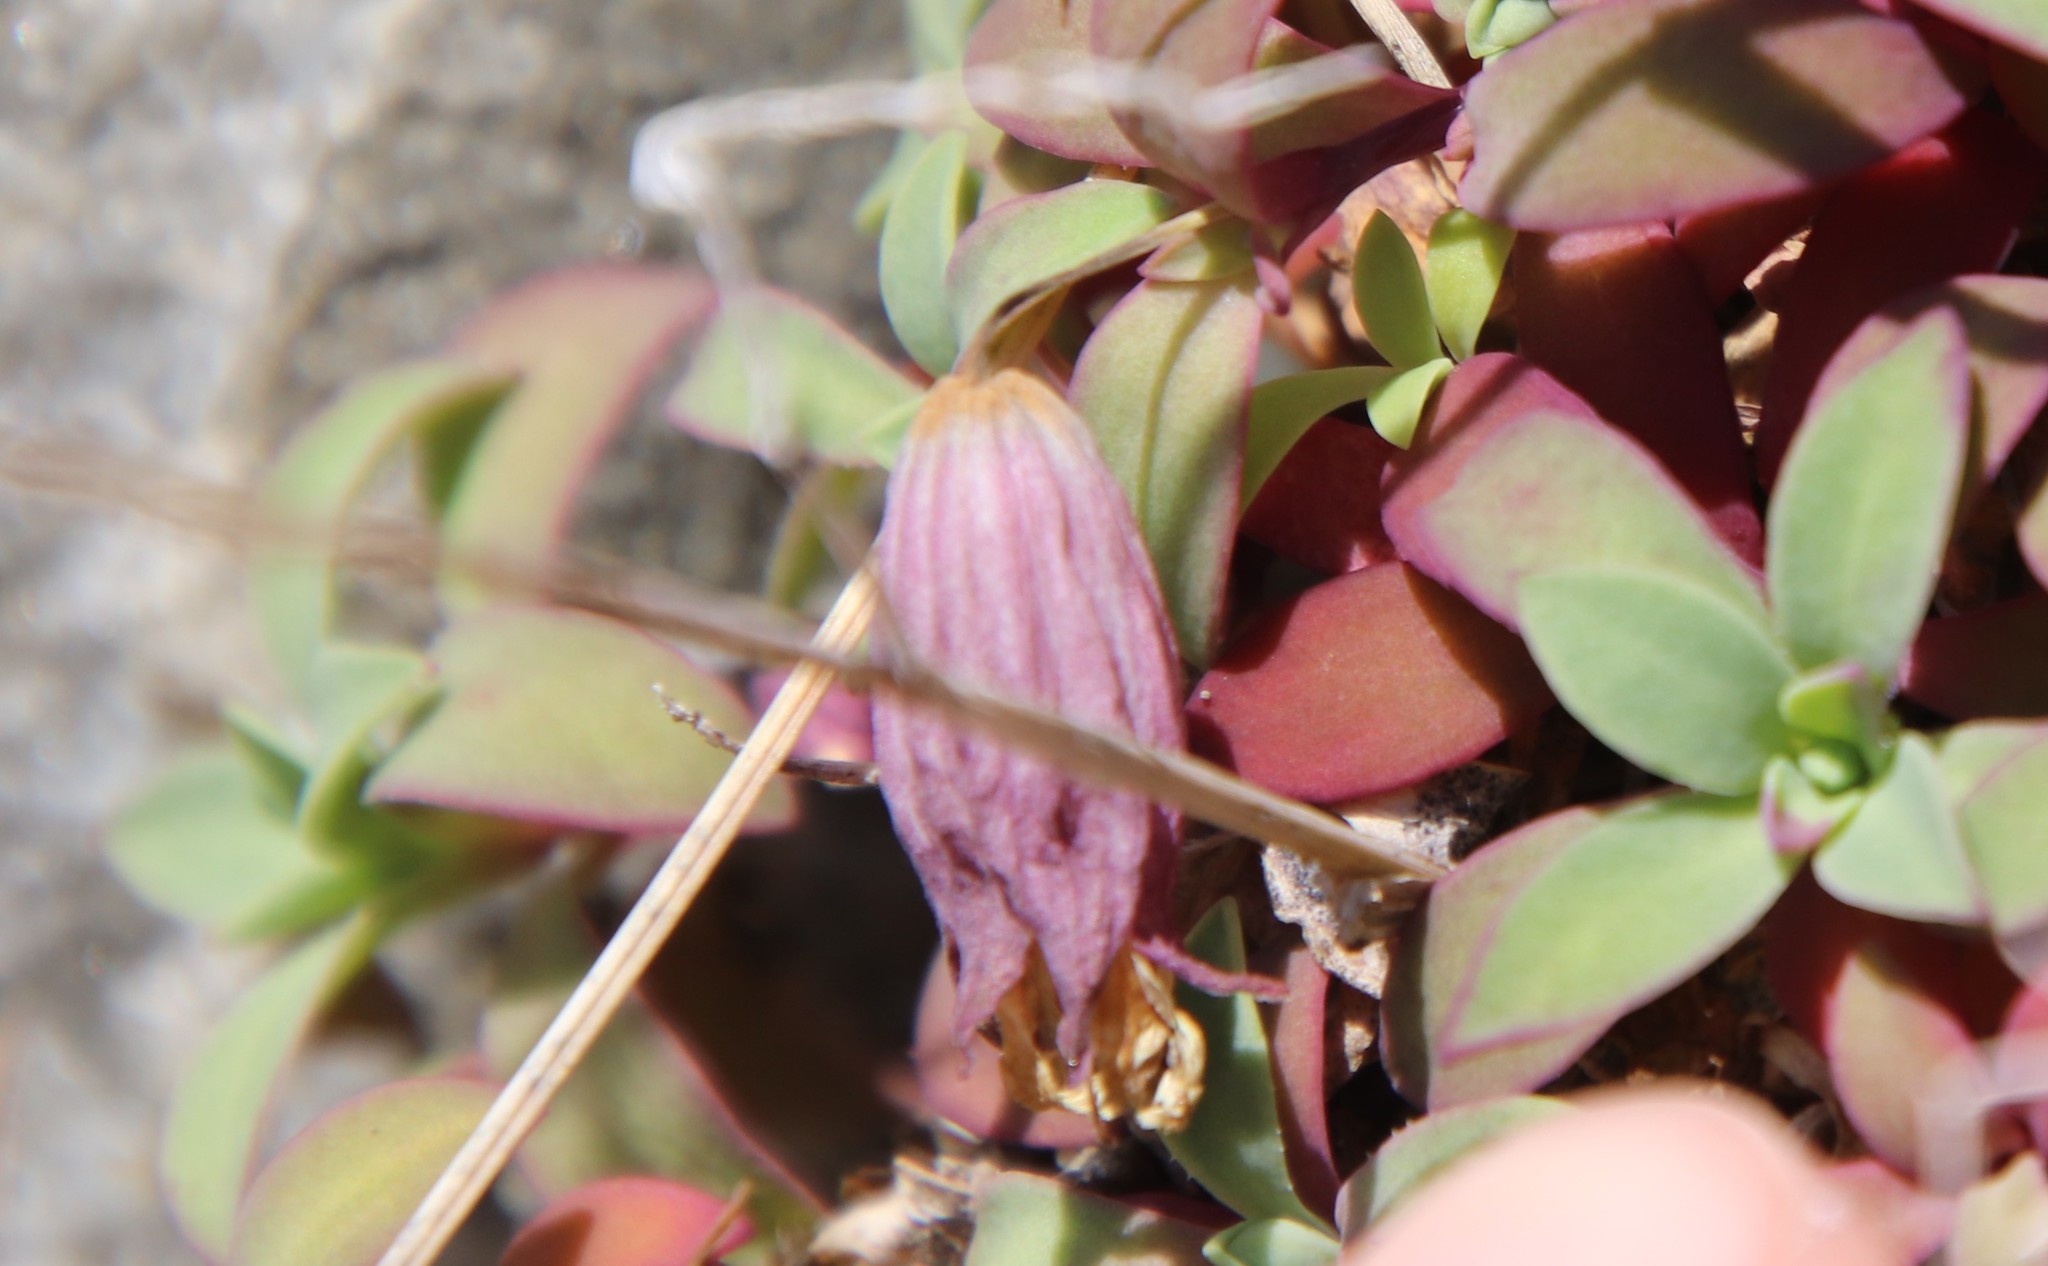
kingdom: Plantae
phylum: Tracheophyta
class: Magnoliopsida
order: Caryophyllales
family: Caryophyllaceae
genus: Silene
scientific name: Silene uniflora
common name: Sea campion
